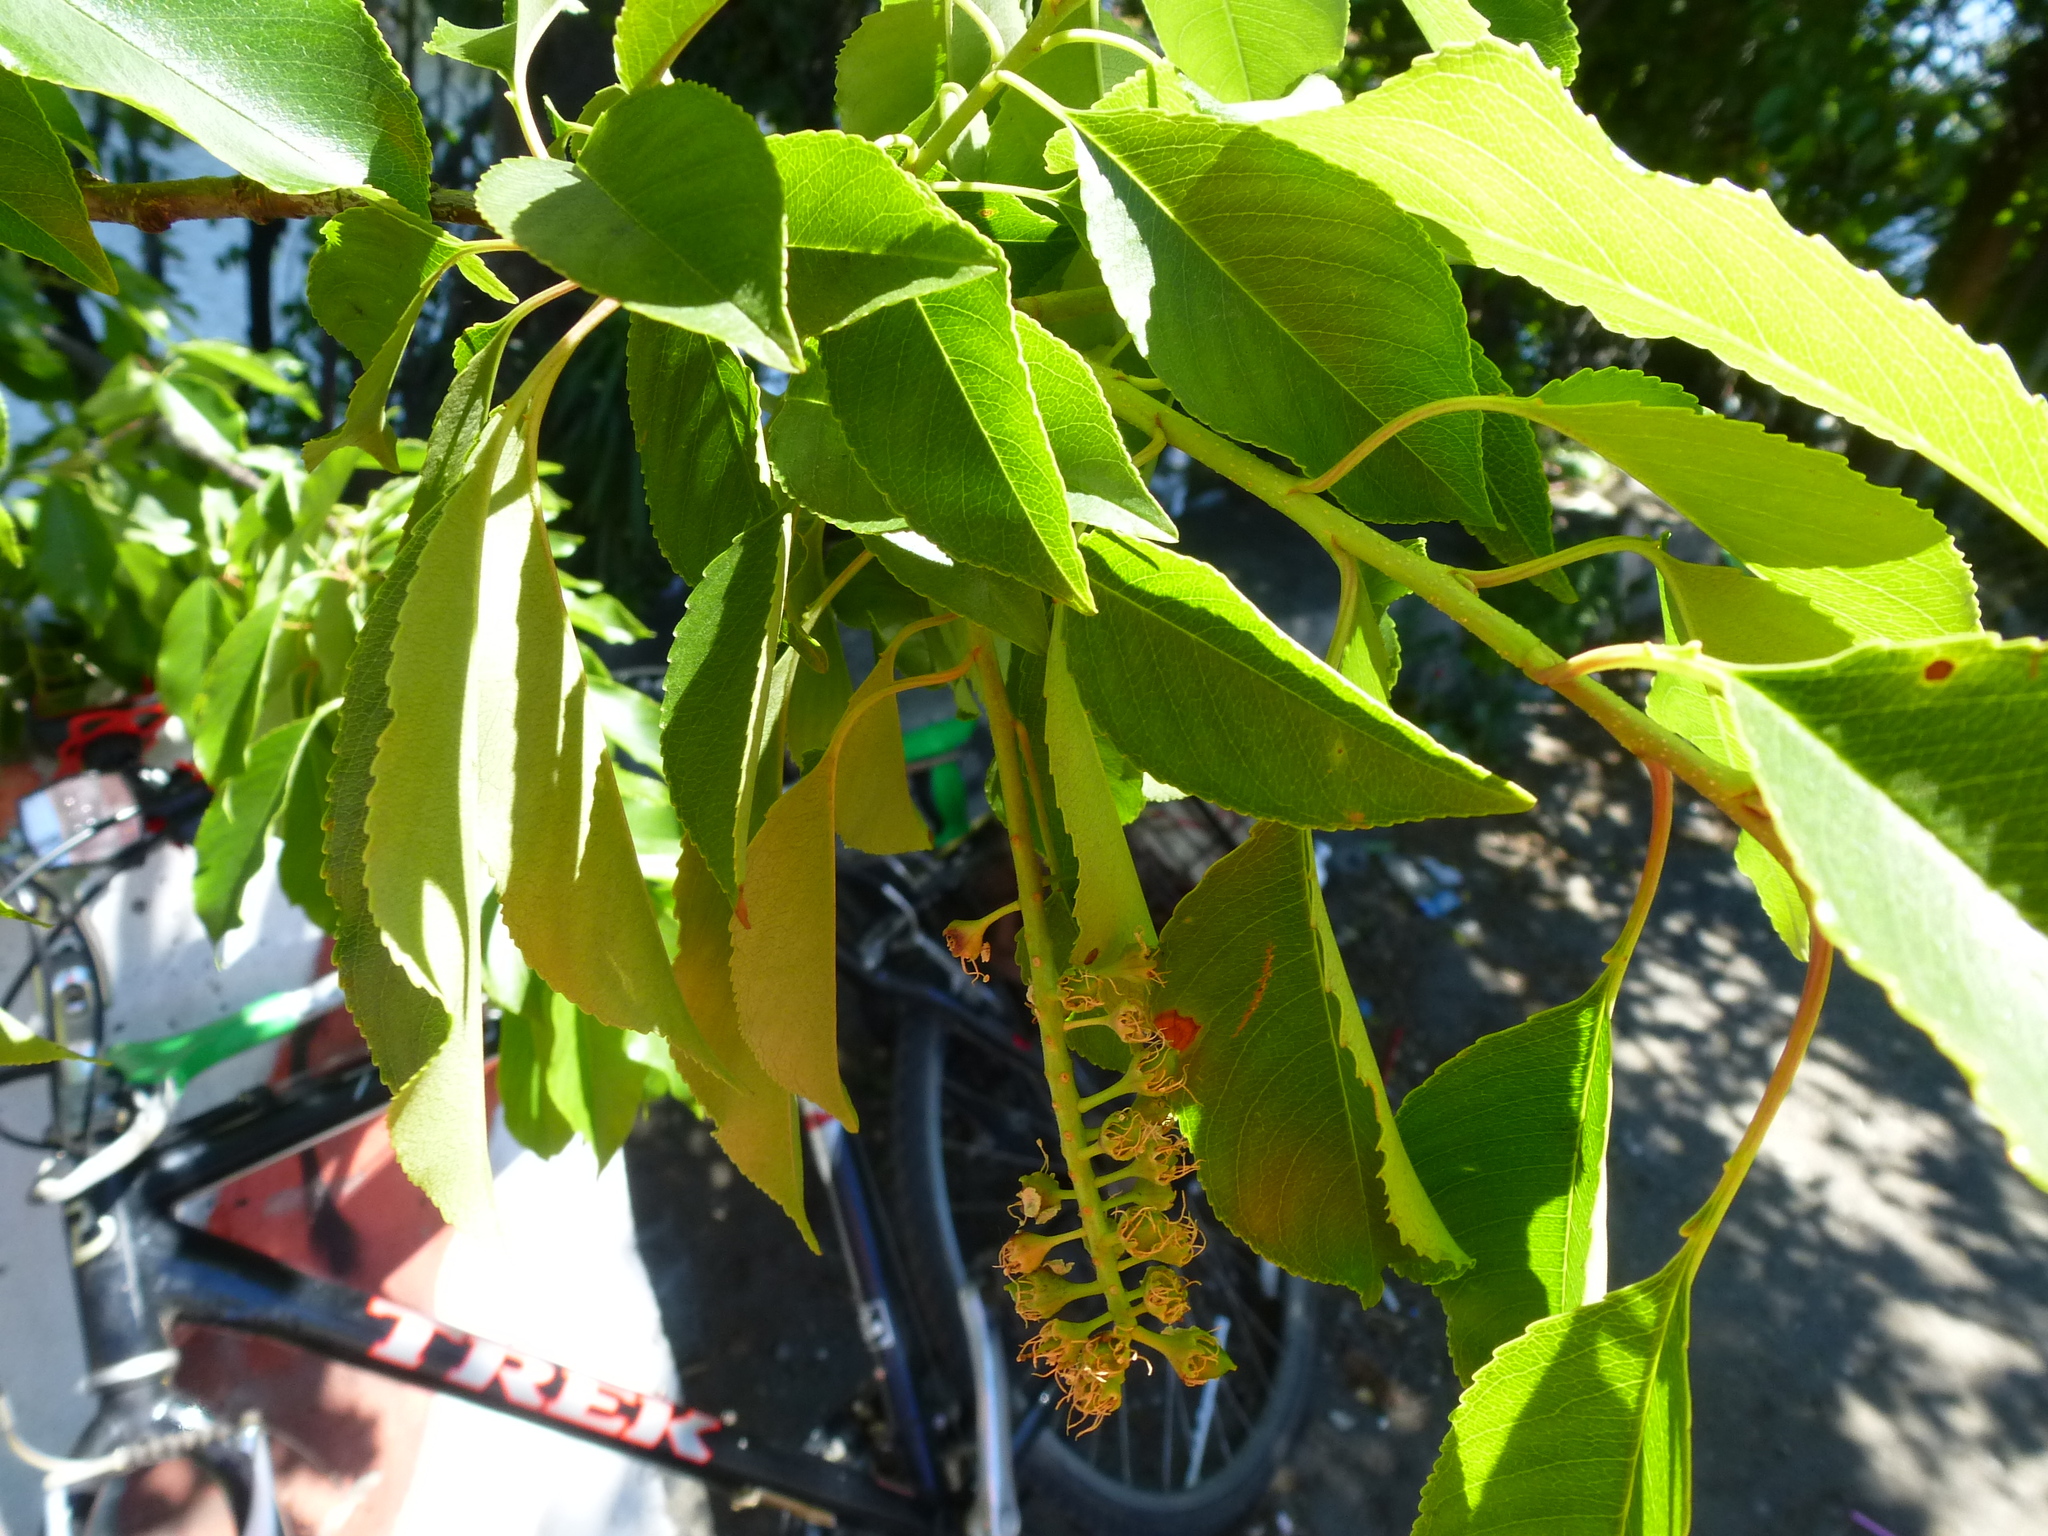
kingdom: Plantae
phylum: Tracheophyta
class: Magnoliopsida
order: Rosales
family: Rosaceae
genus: Prunus
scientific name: Prunus serotina
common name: Black cherry
